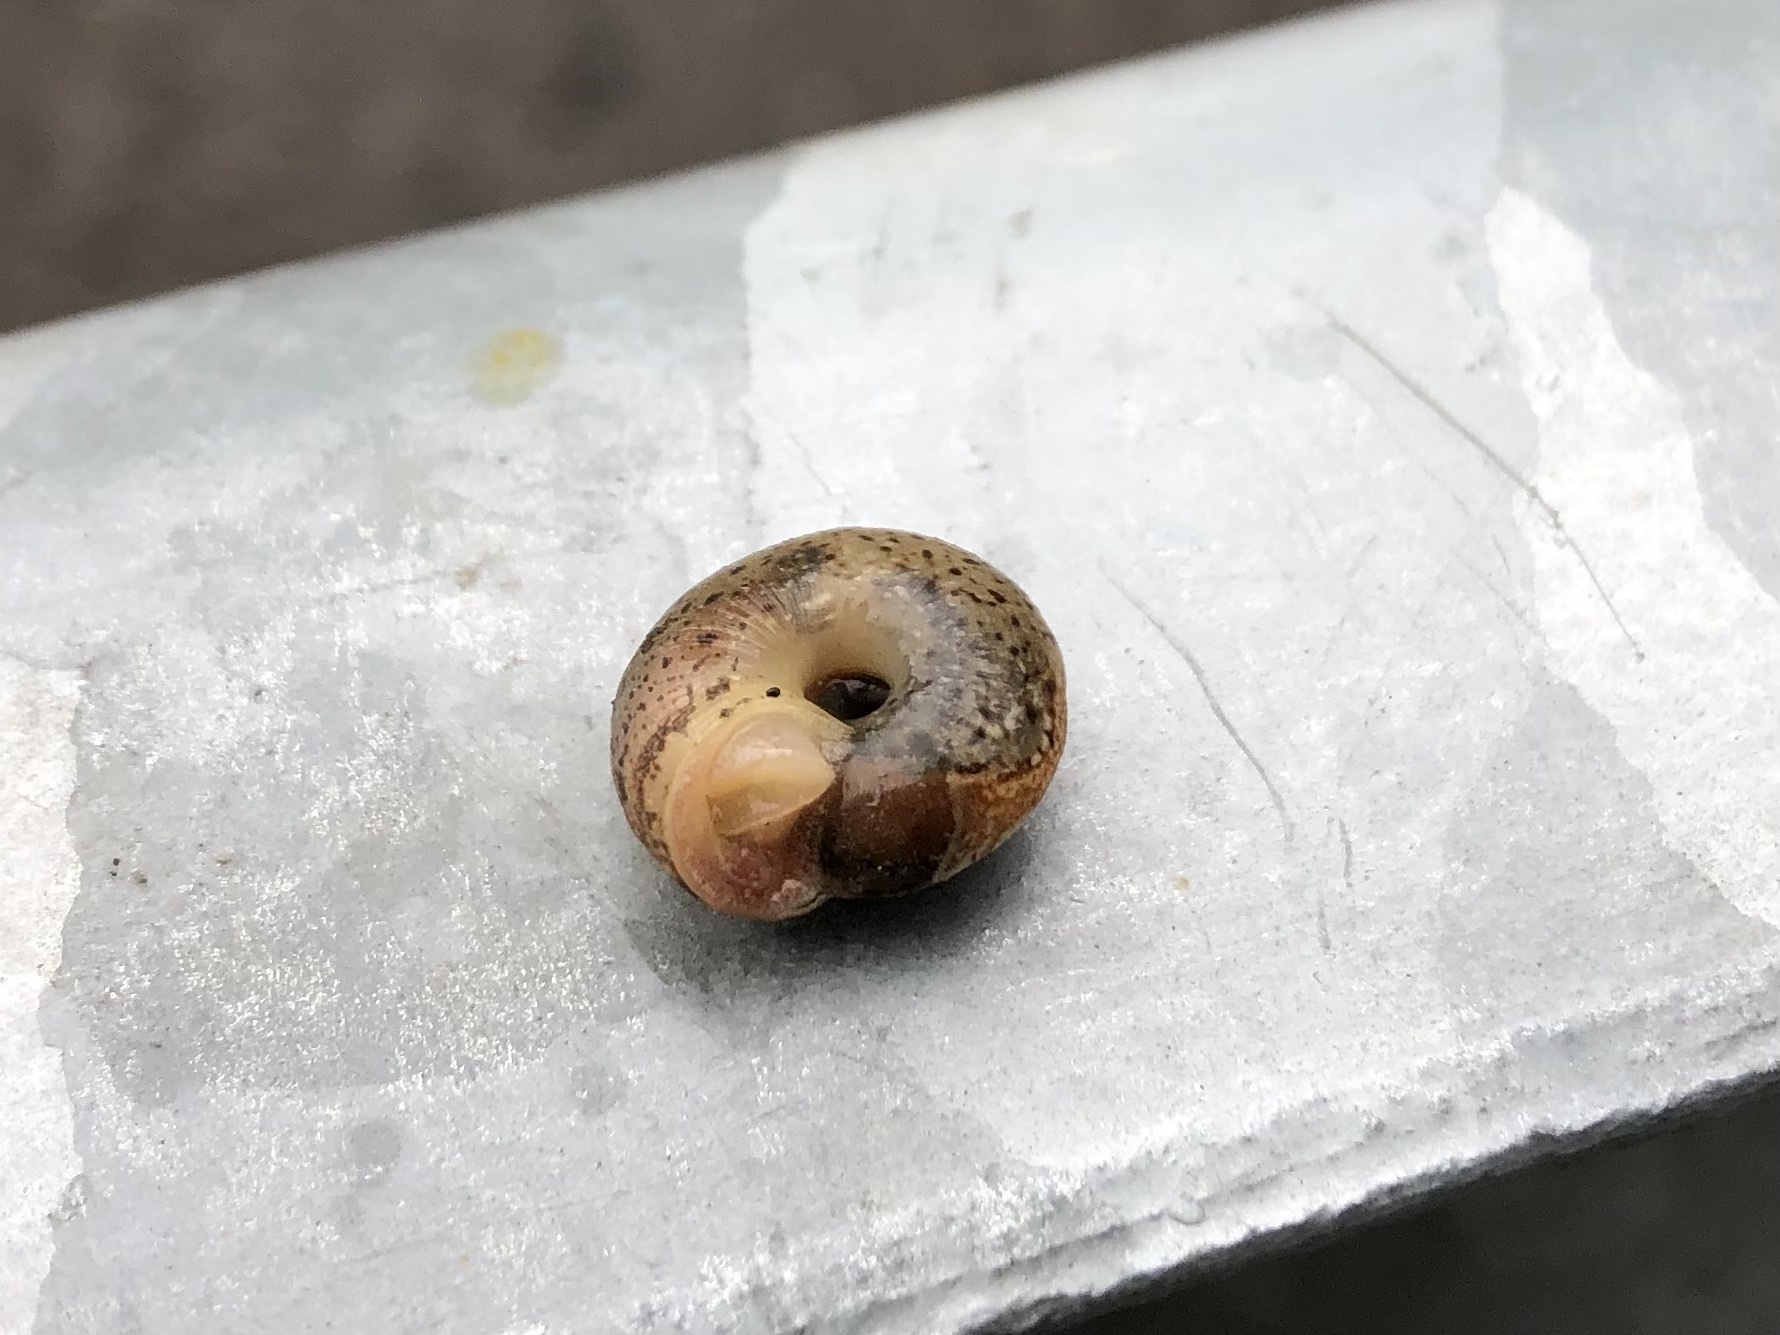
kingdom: Animalia
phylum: Mollusca
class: Gastropoda
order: Stylommatophora
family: Hygromiidae
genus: Urticicola
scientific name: Urticicola umbrosus
